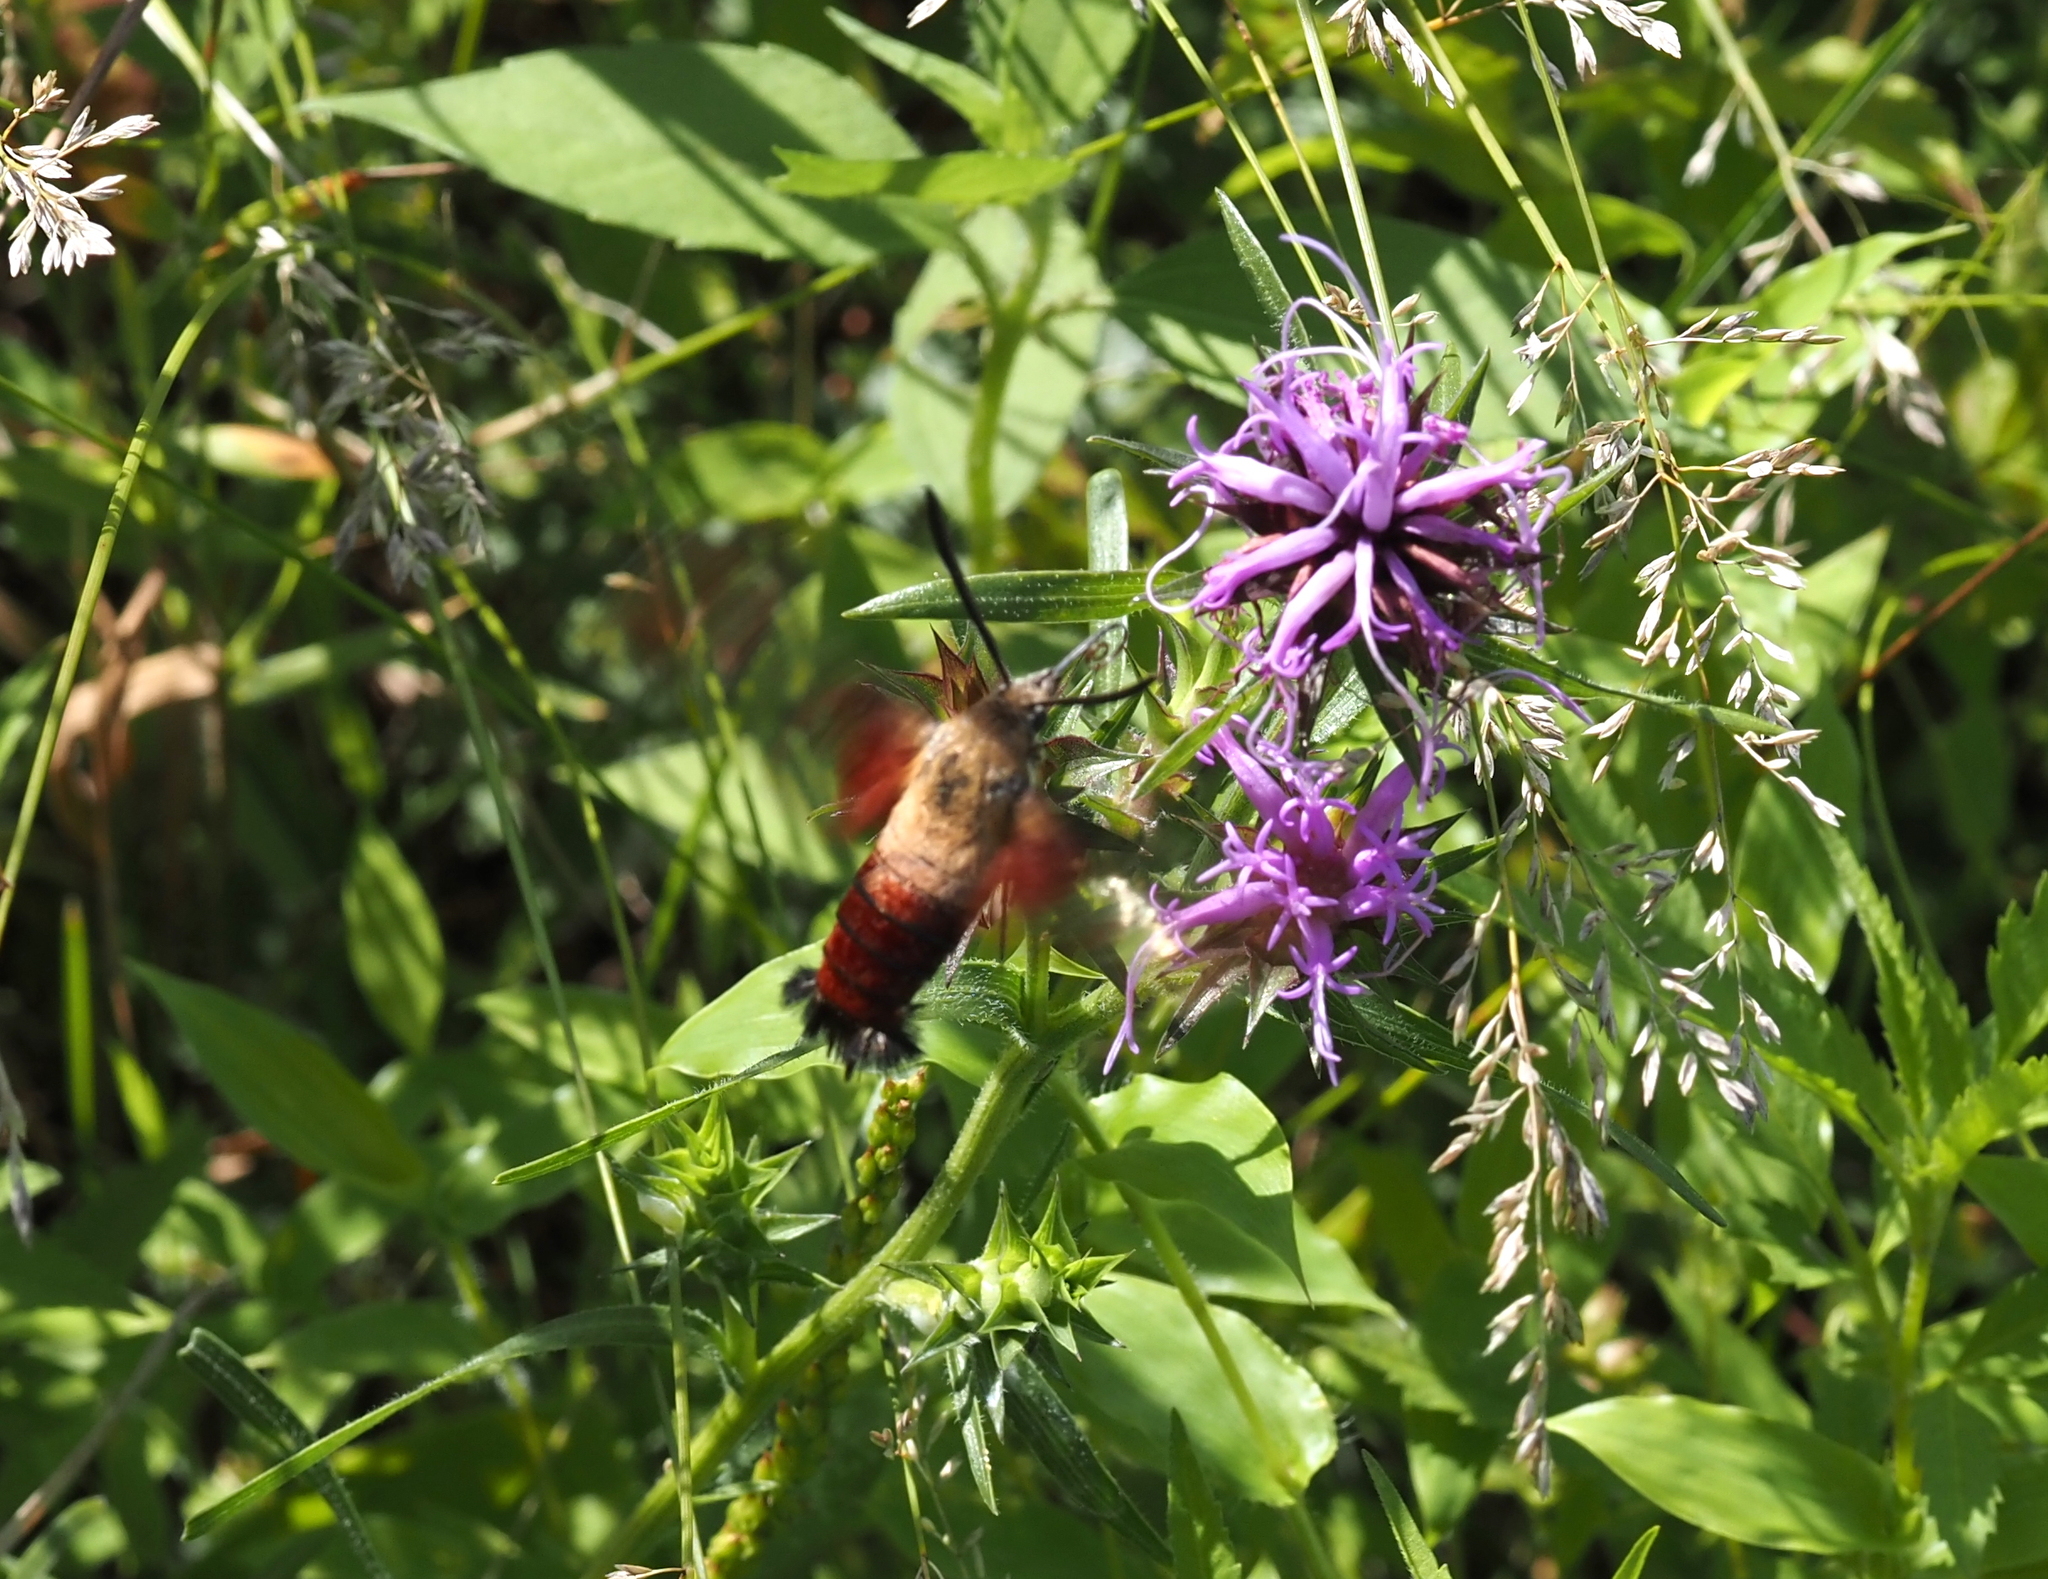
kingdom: Animalia
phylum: Arthropoda
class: Insecta
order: Lepidoptera
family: Sphingidae
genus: Hemaris
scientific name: Hemaris diffinis
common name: Bumblebee moth
